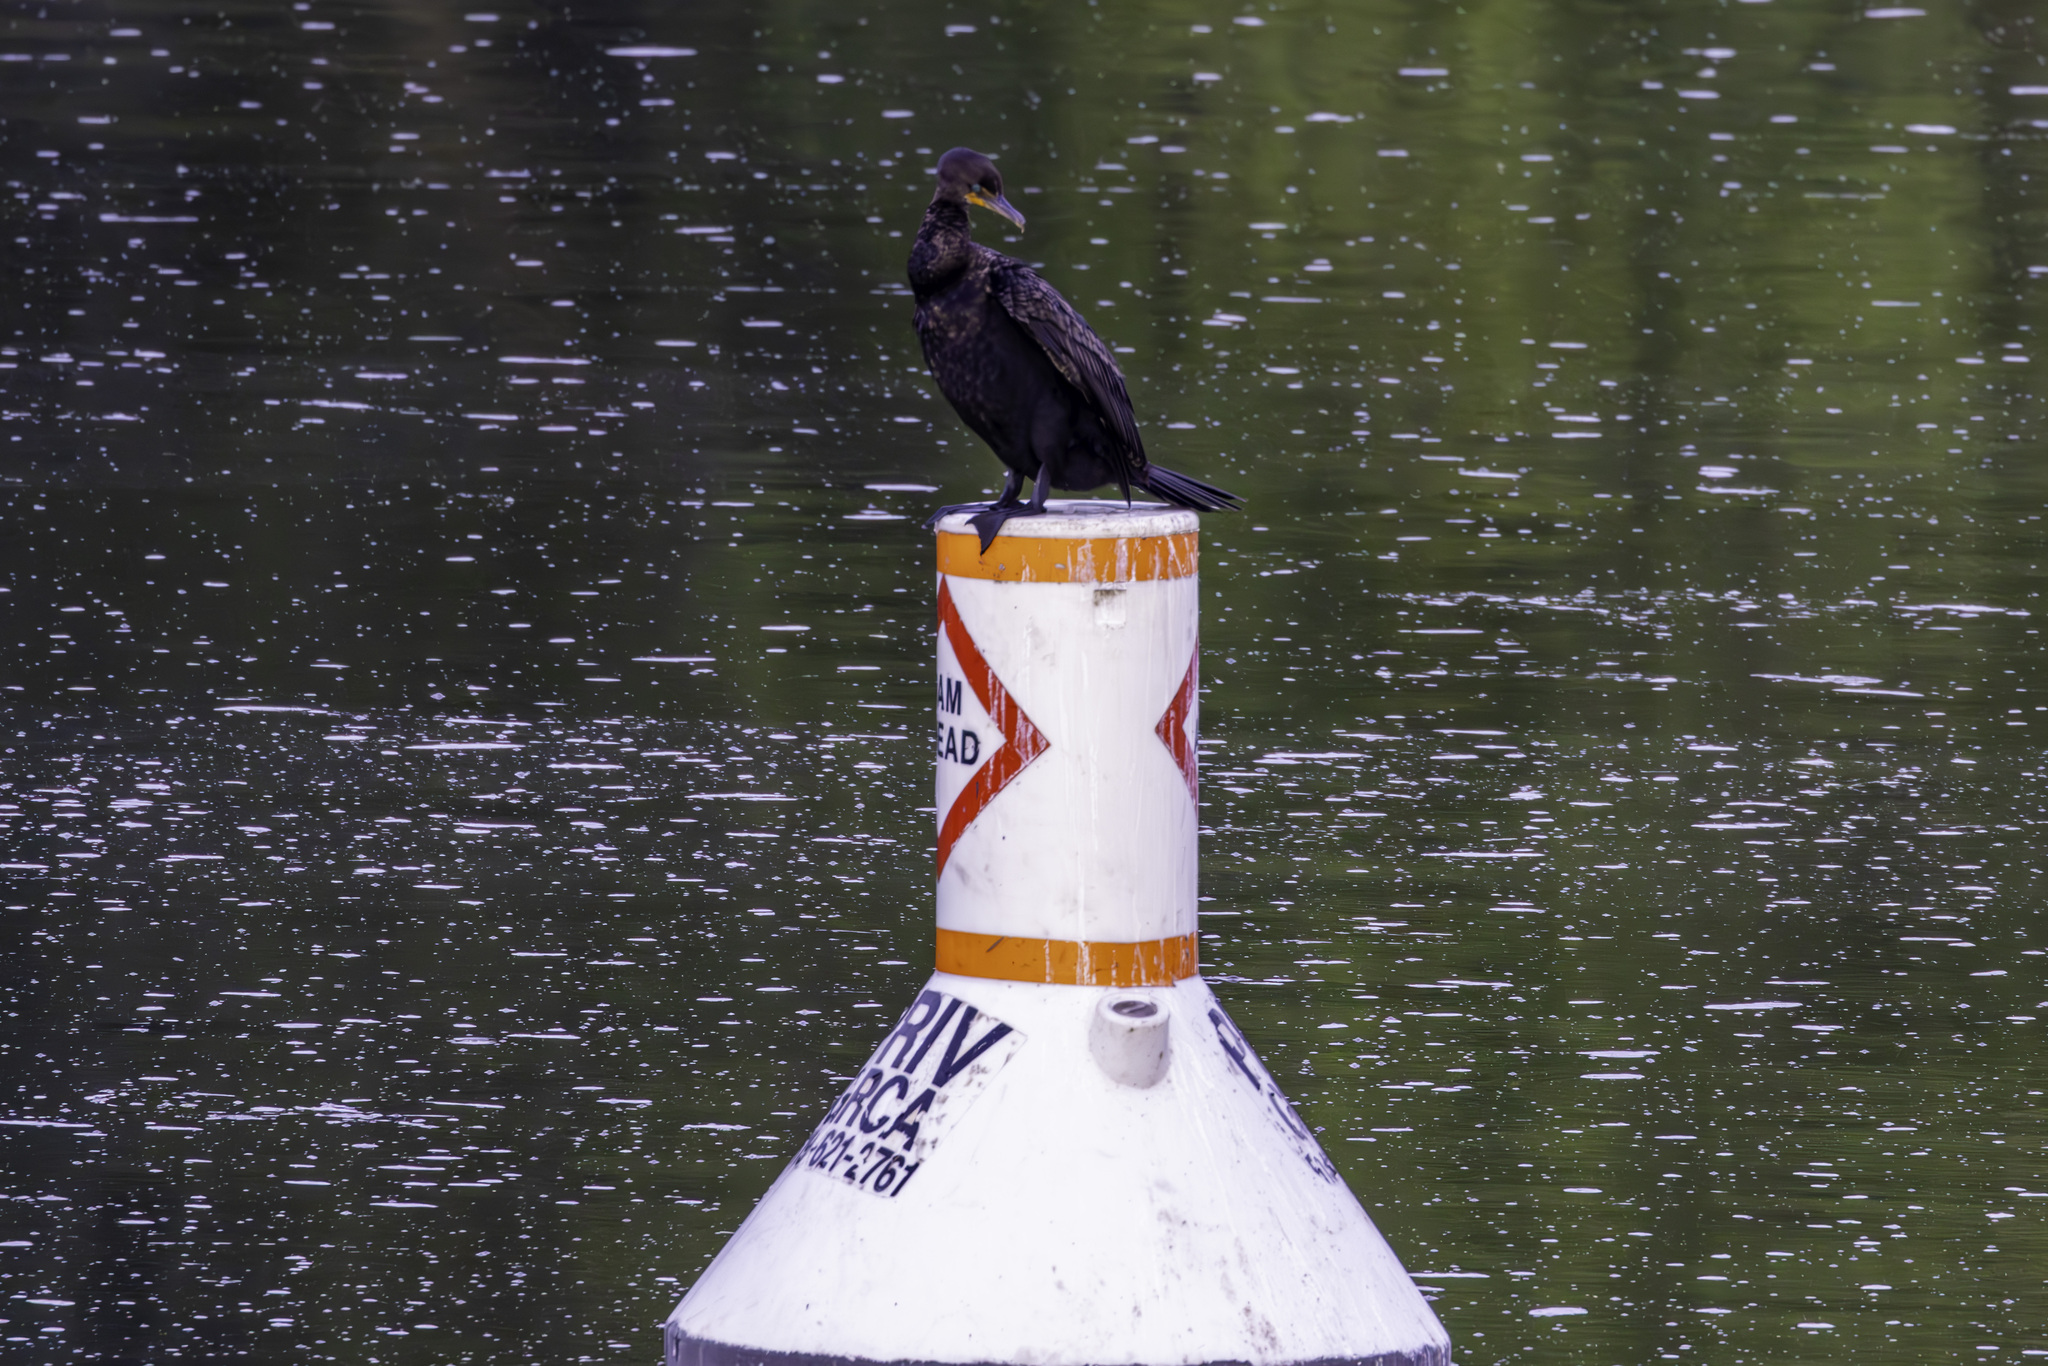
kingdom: Animalia
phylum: Chordata
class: Aves
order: Suliformes
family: Phalacrocoracidae
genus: Phalacrocorax
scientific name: Phalacrocorax auritus
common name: Double-crested cormorant
